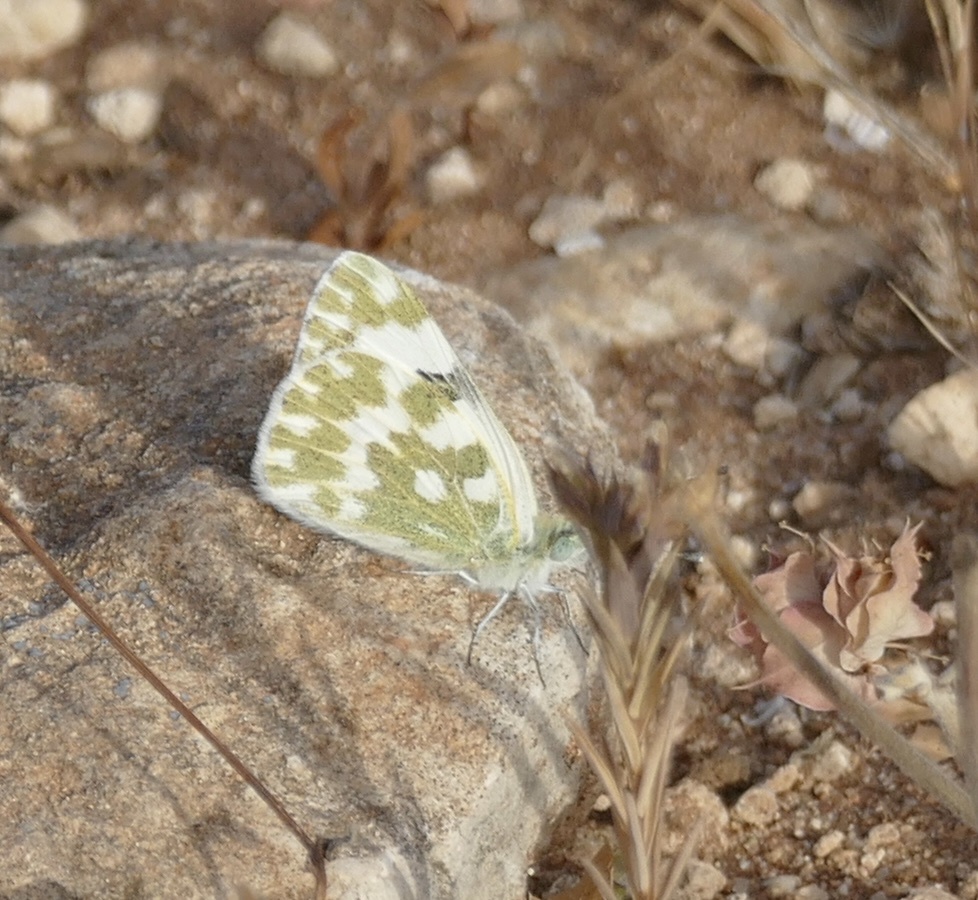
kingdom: Animalia
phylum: Arthropoda
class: Insecta
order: Lepidoptera
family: Pieridae
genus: Pontia
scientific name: Pontia daplidice
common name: Bath white
